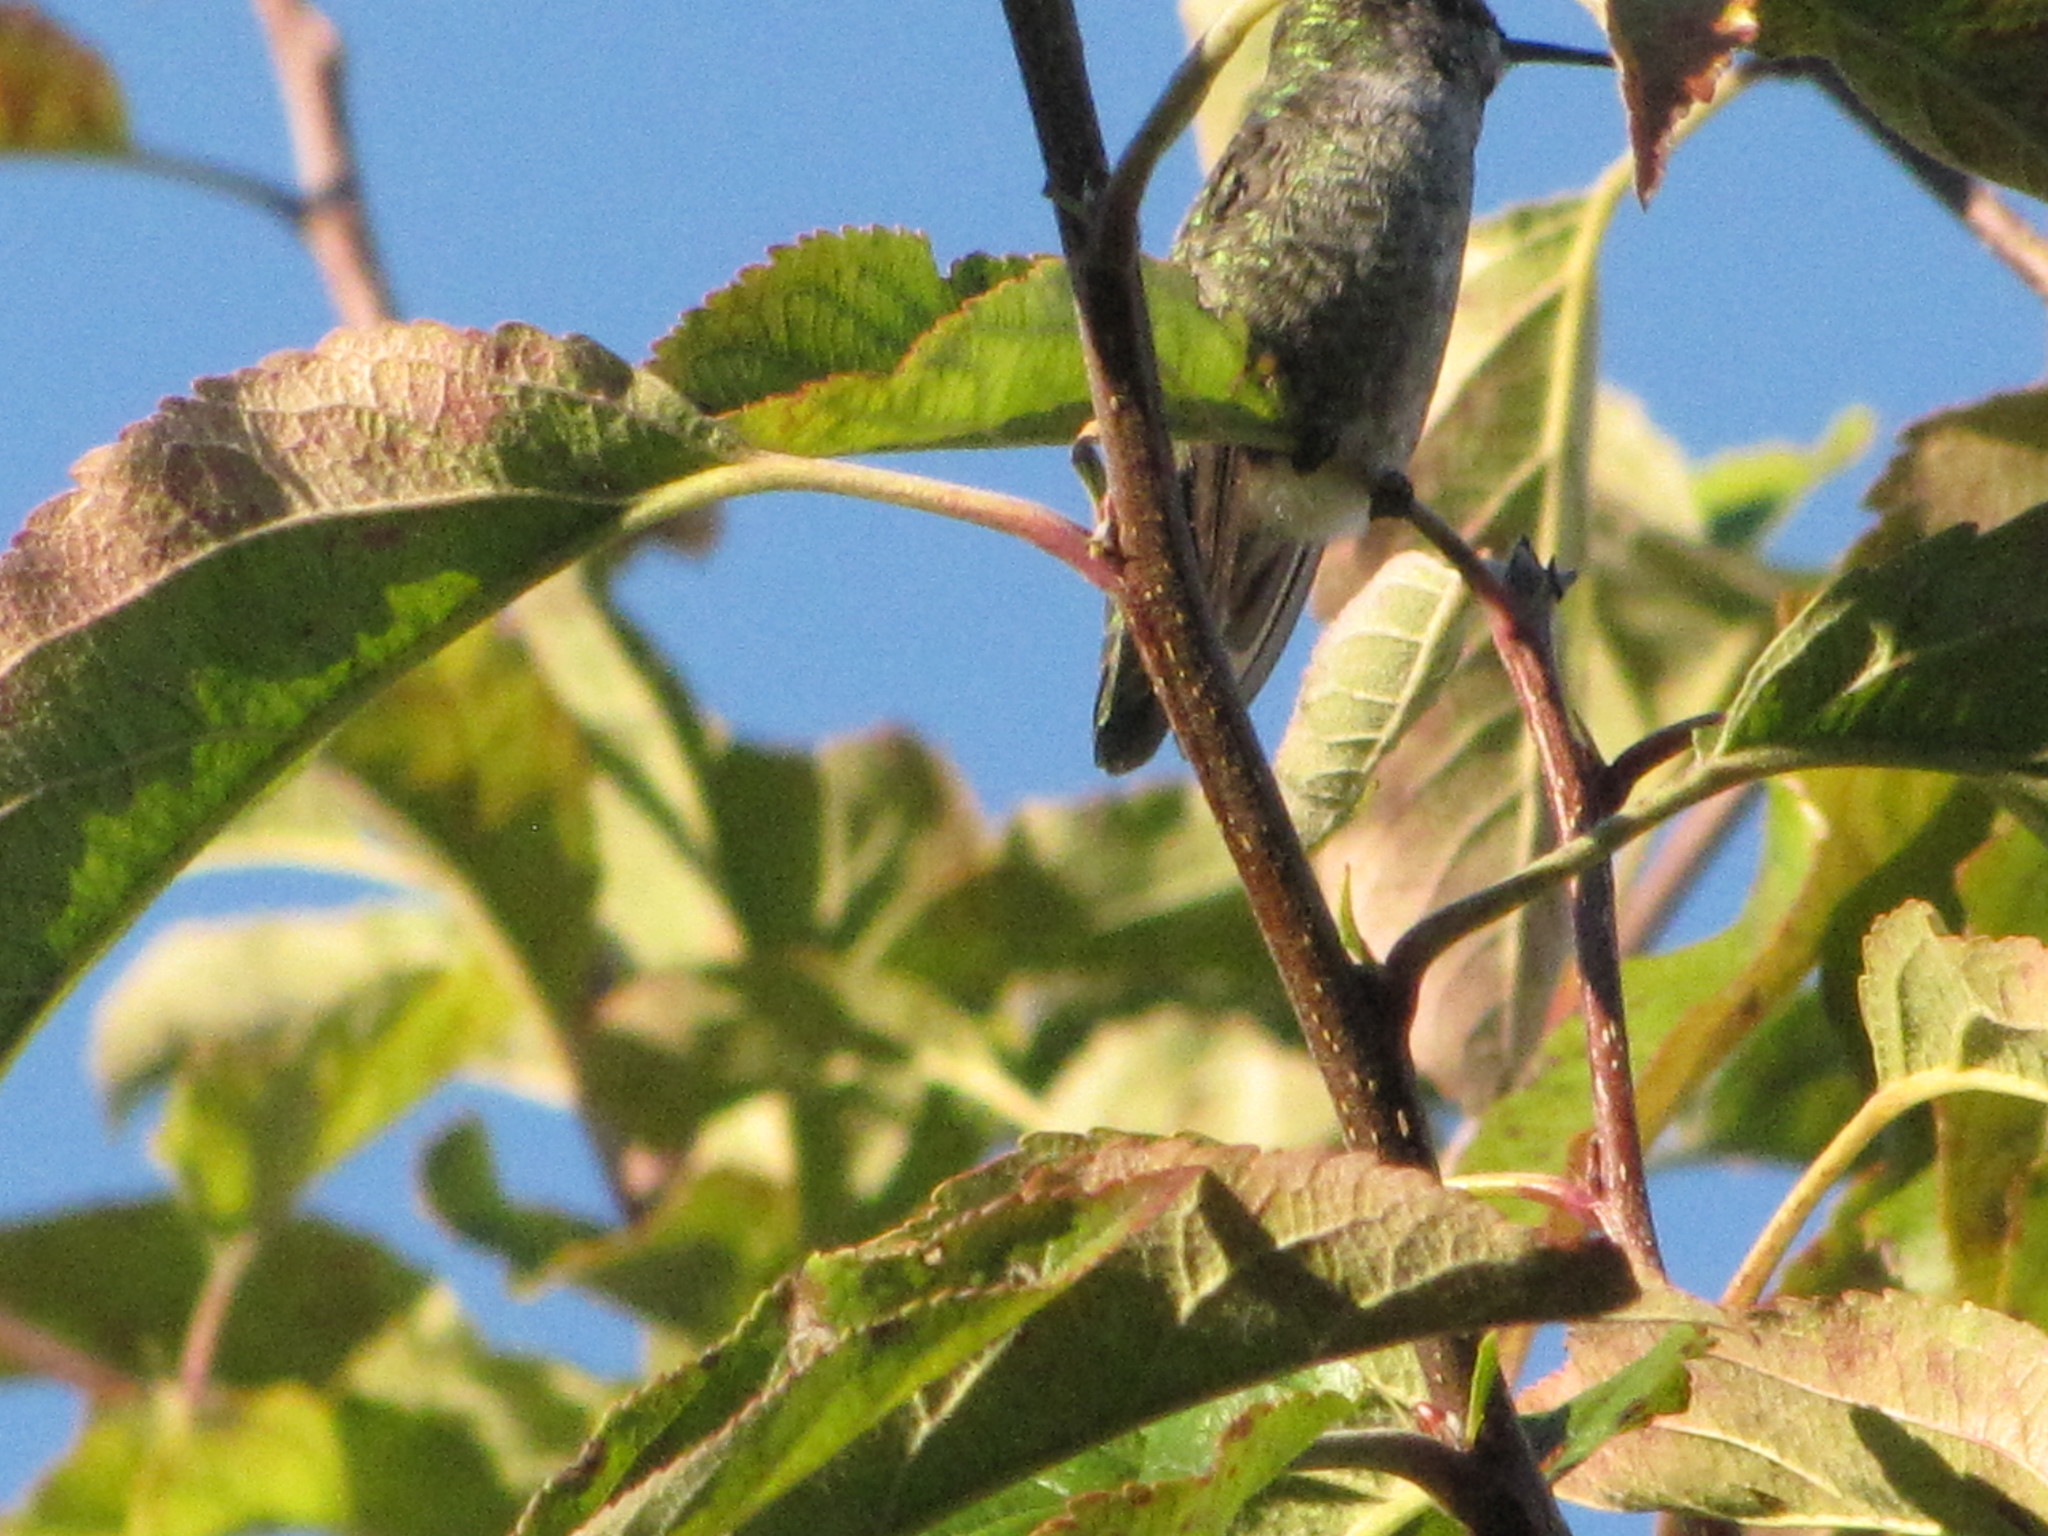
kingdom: Animalia
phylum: Chordata
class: Aves
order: Apodiformes
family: Trochilidae
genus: Calypte
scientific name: Calypte anna
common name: Anna's hummingbird
